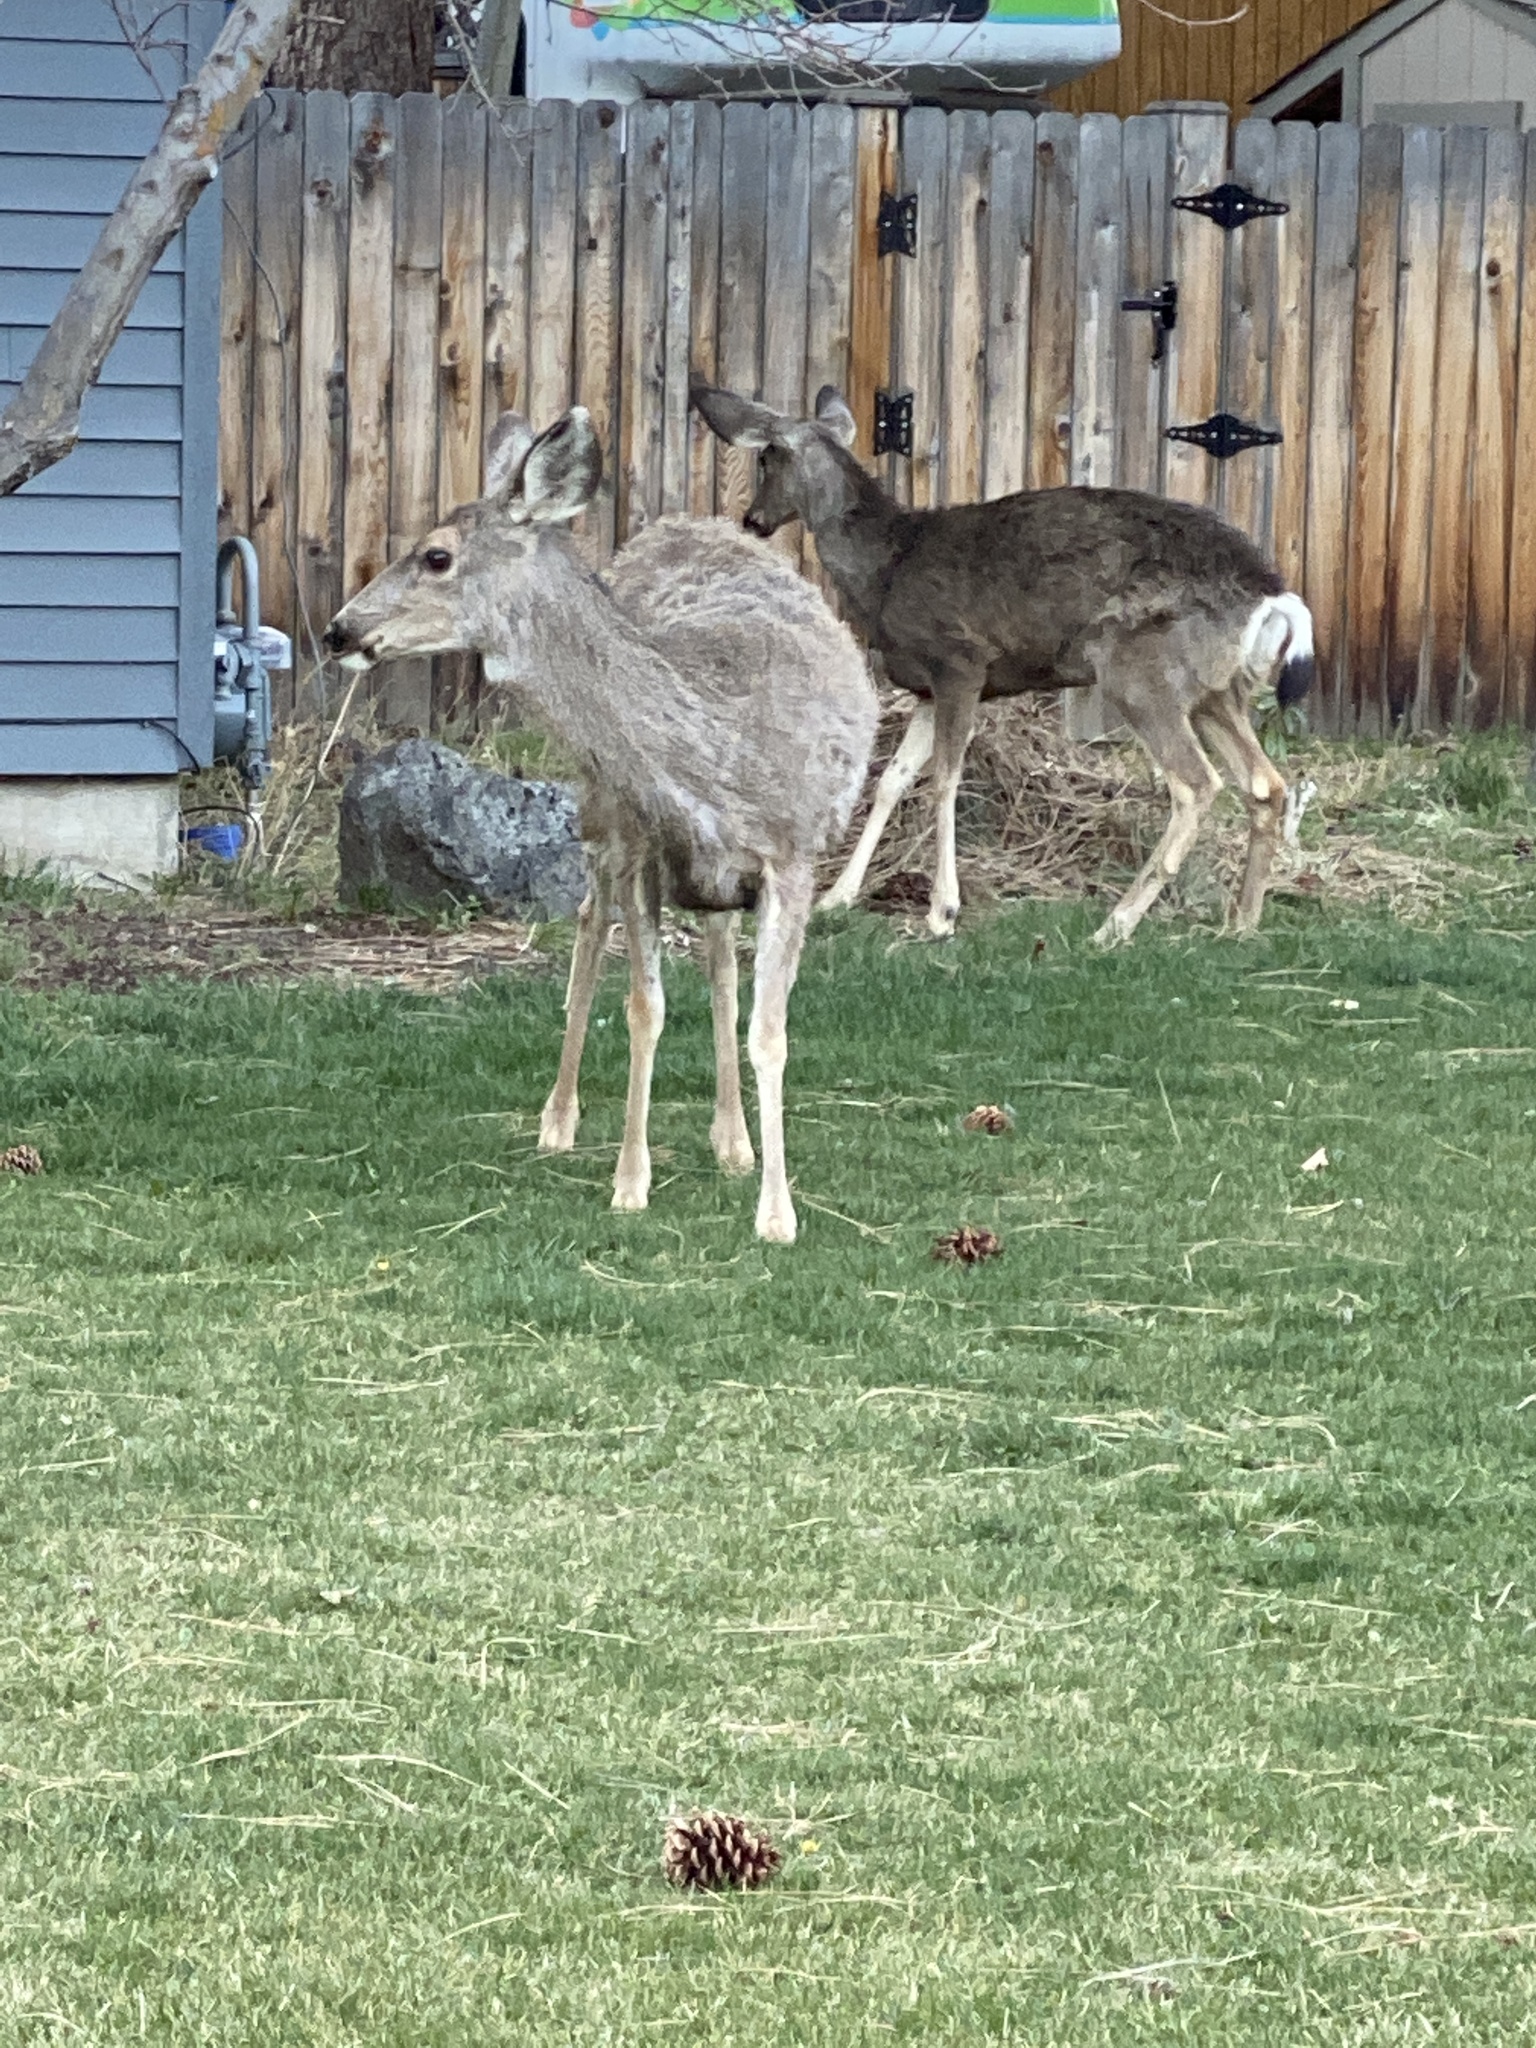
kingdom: Animalia
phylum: Chordata
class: Mammalia
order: Artiodactyla
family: Cervidae
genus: Odocoileus
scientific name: Odocoileus hemionus
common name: Mule deer
